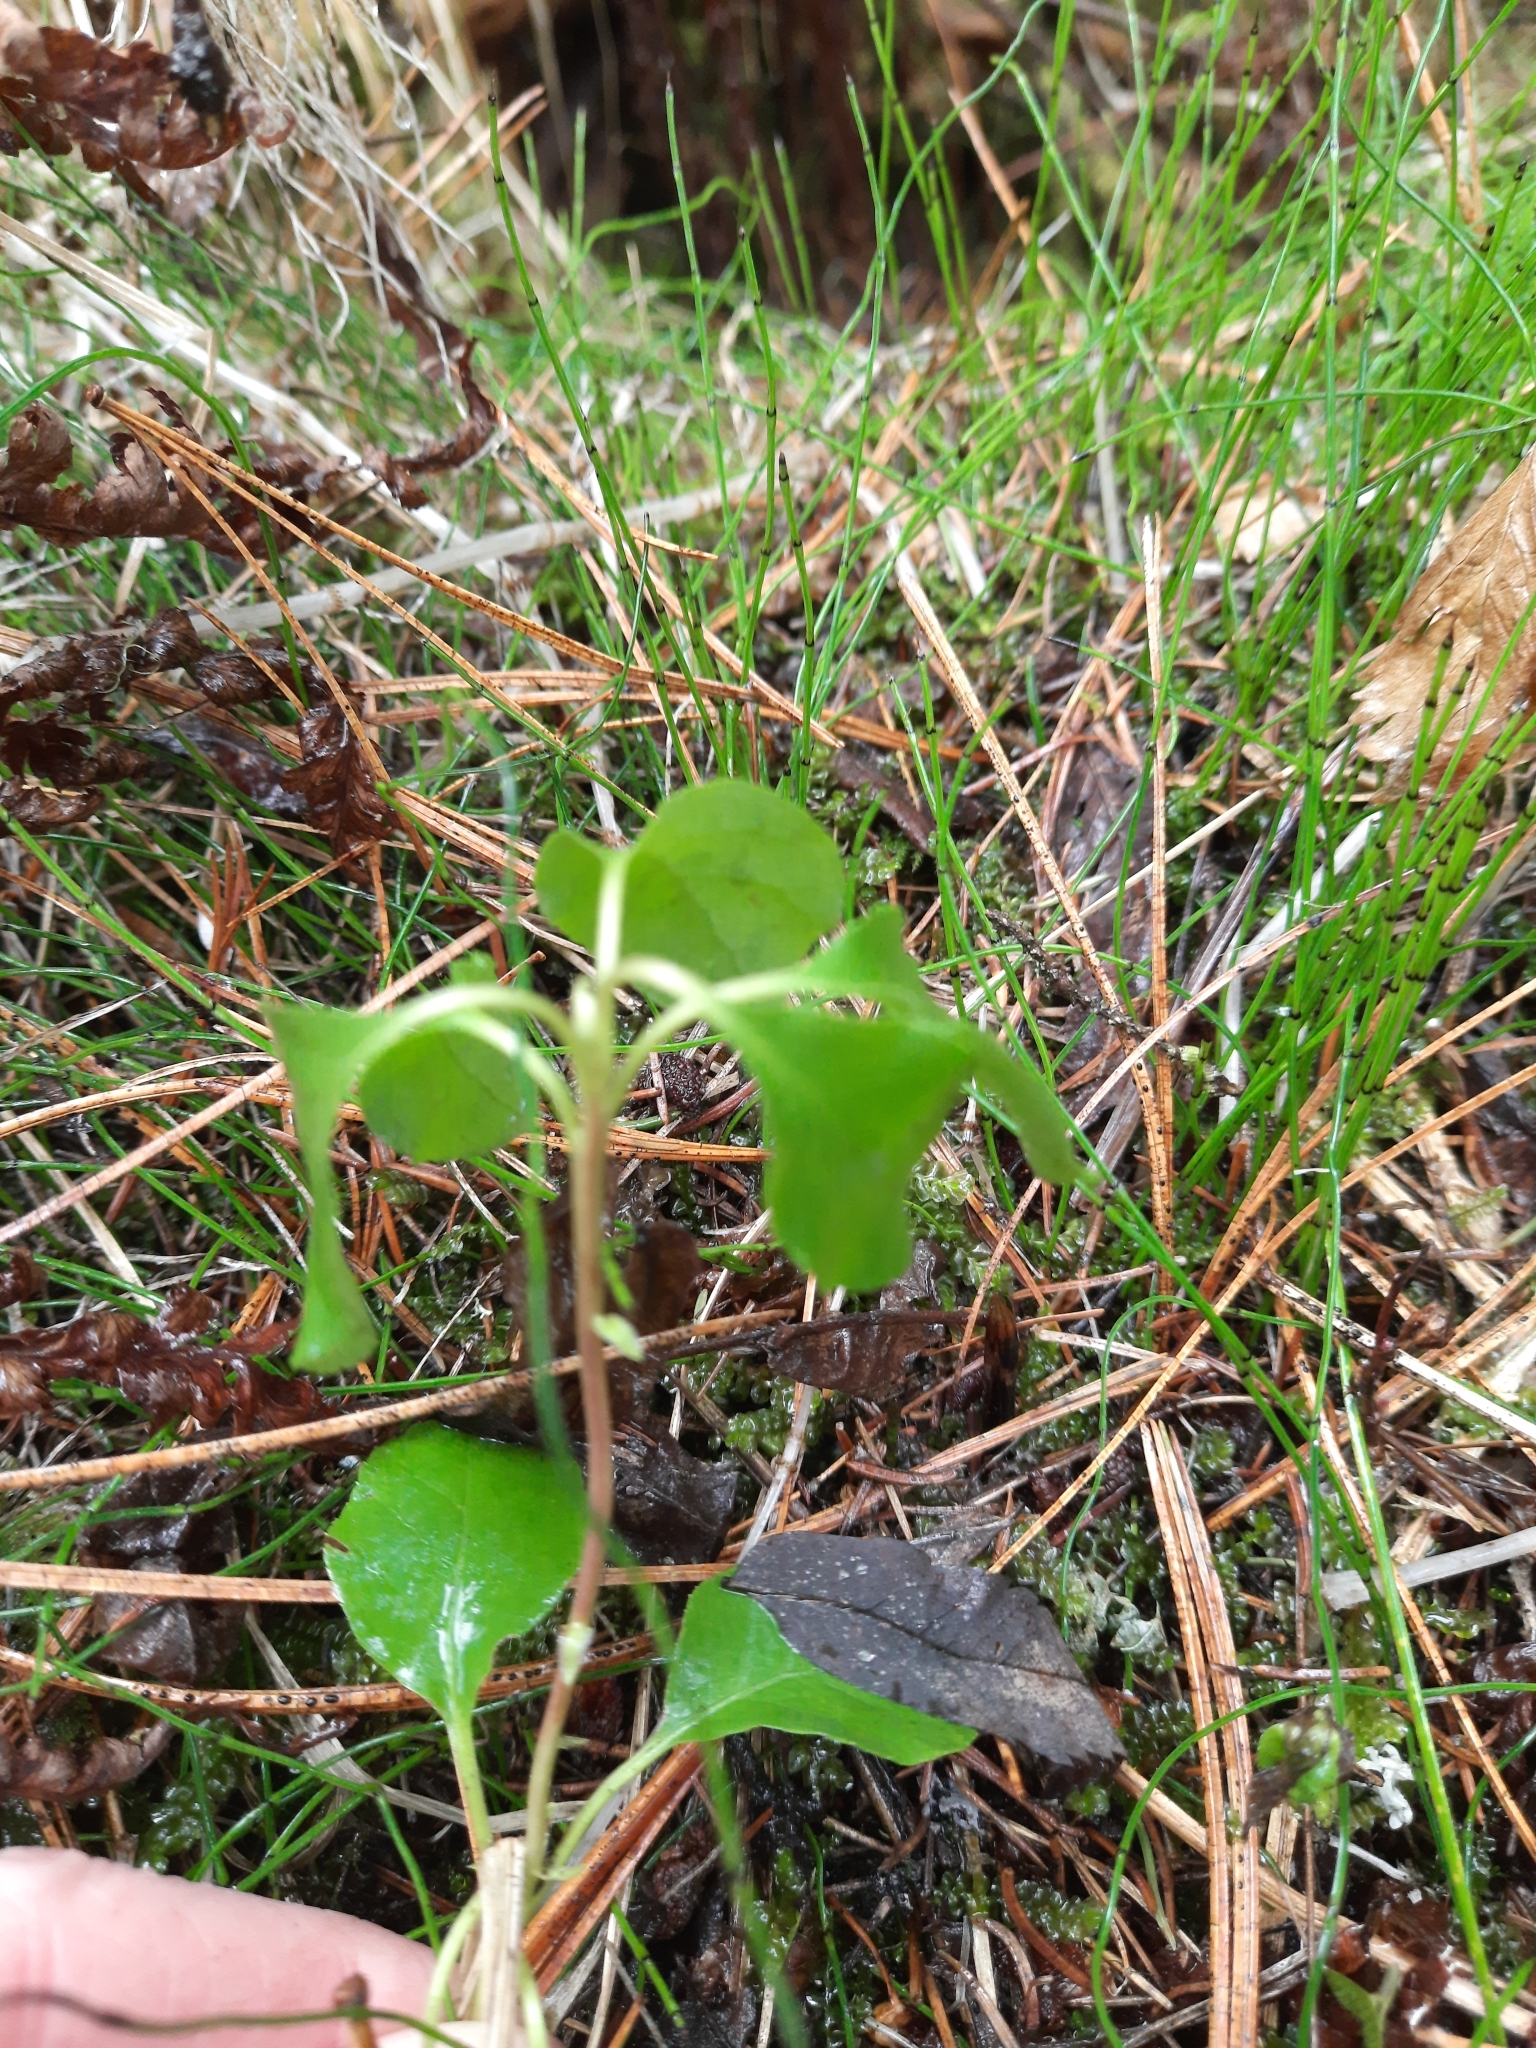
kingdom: Plantae
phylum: Tracheophyta
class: Magnoliopsida
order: Ericales
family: Ericaceae
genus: Orthilia
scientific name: Orthilia secunda
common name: One-sided orthilia
